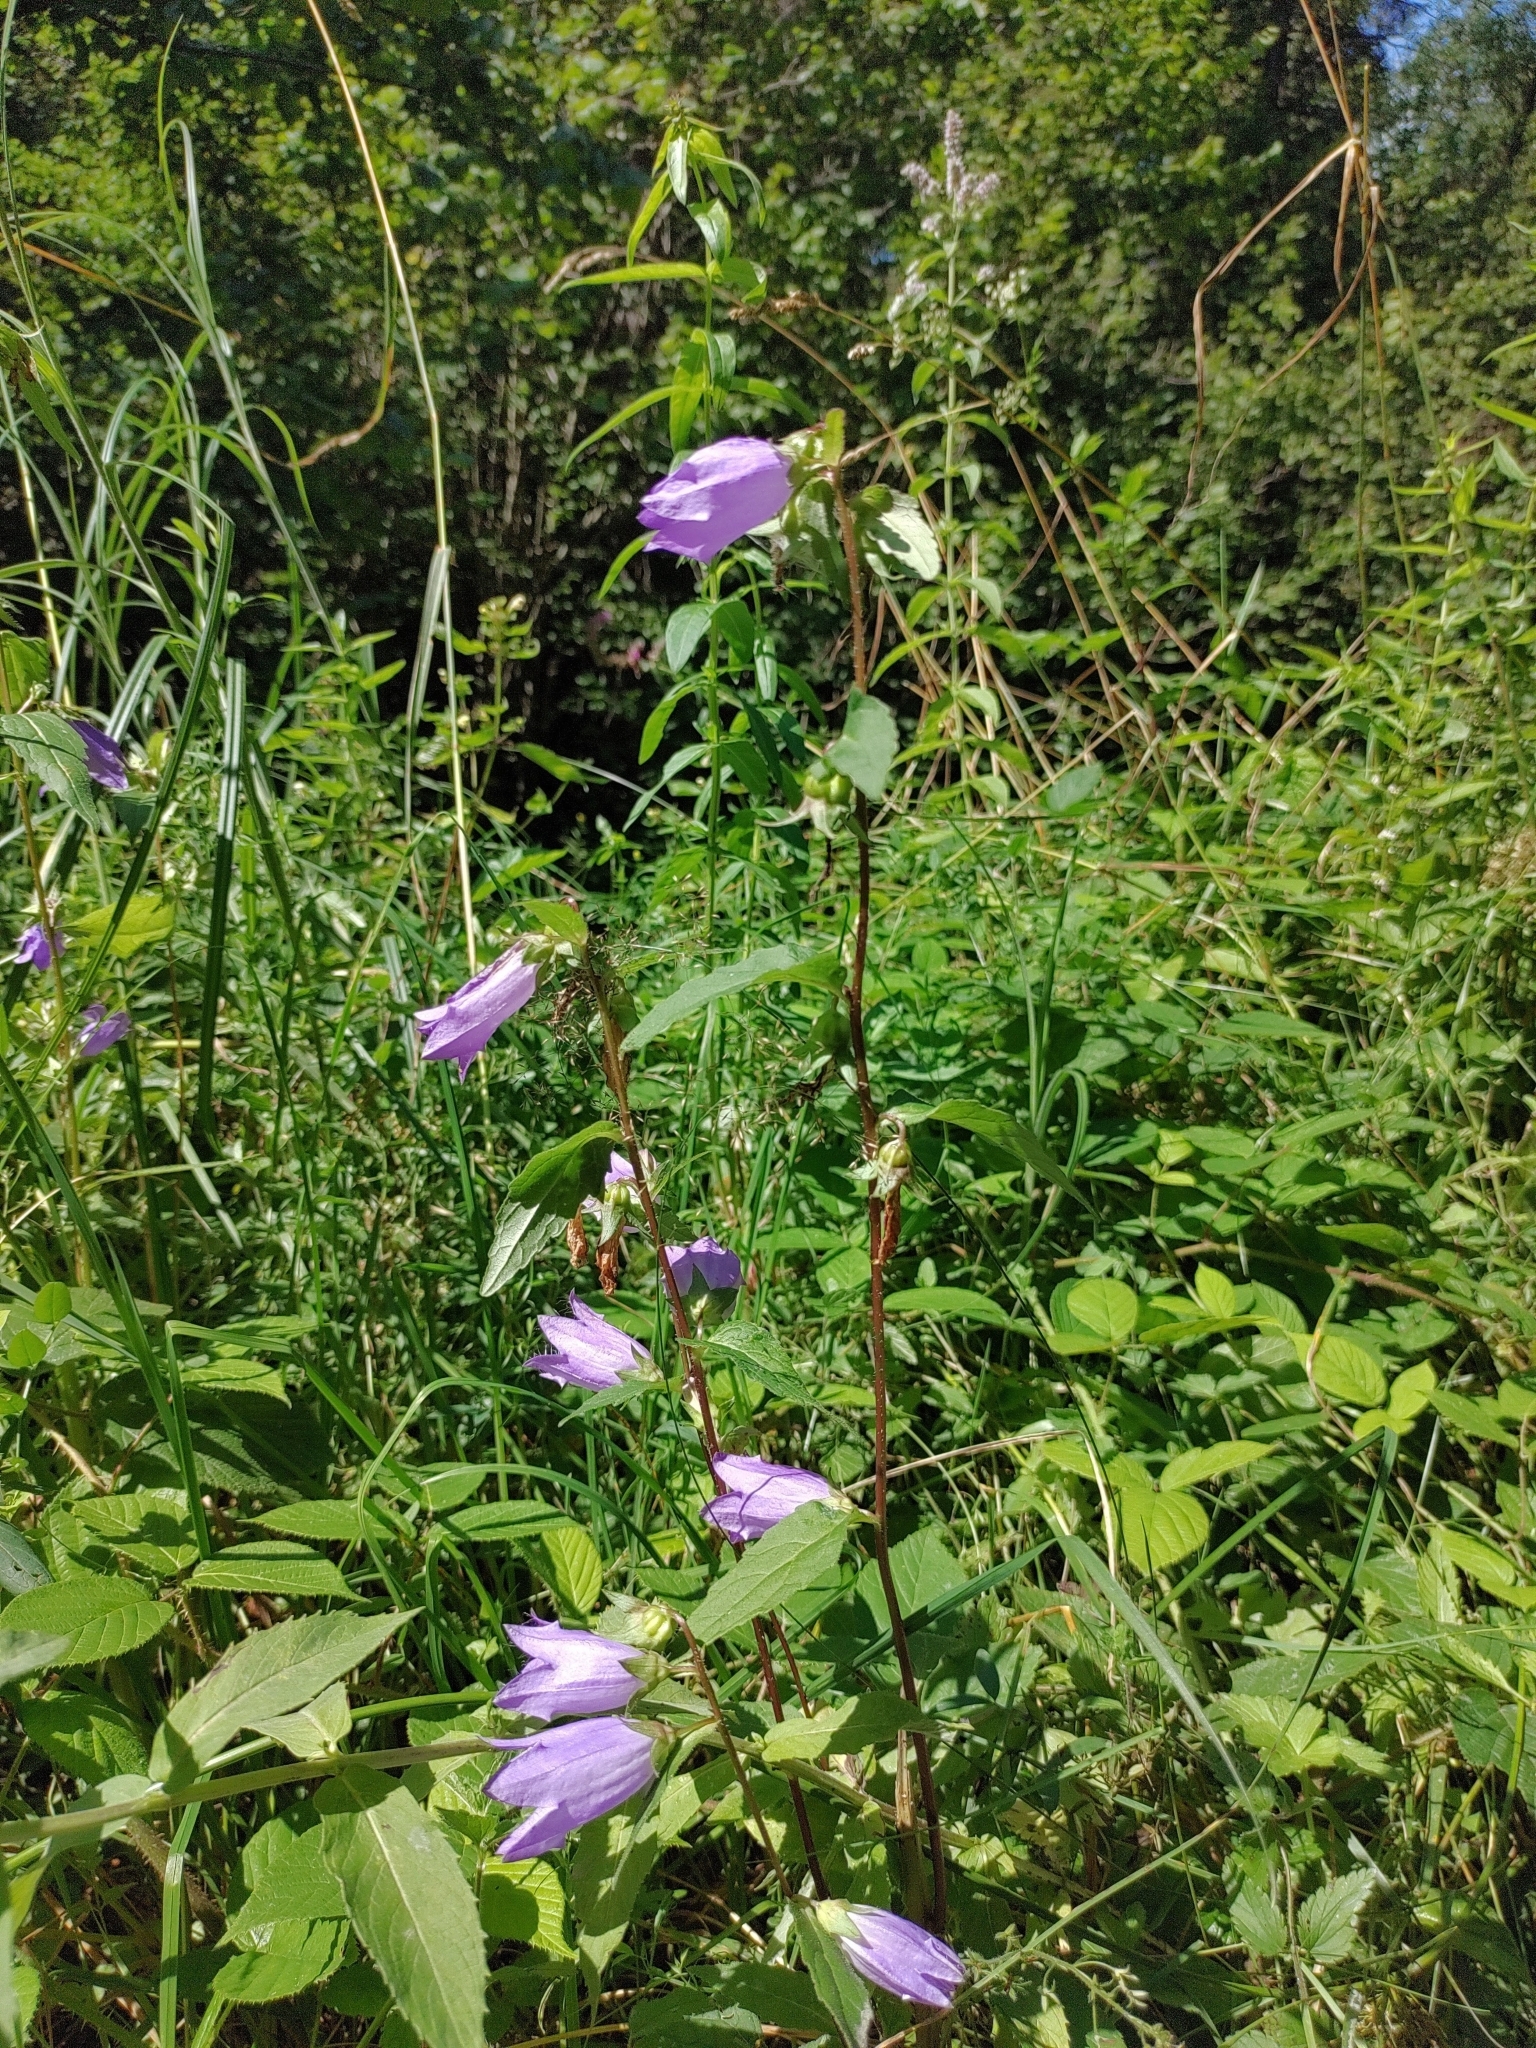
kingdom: Plantae
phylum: Tracheophyta
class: Magnoliopsida
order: Asterales
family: Campanulaceae
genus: Campanula
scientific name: Campanula trachelium
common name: Nettle-leaved bellflower
